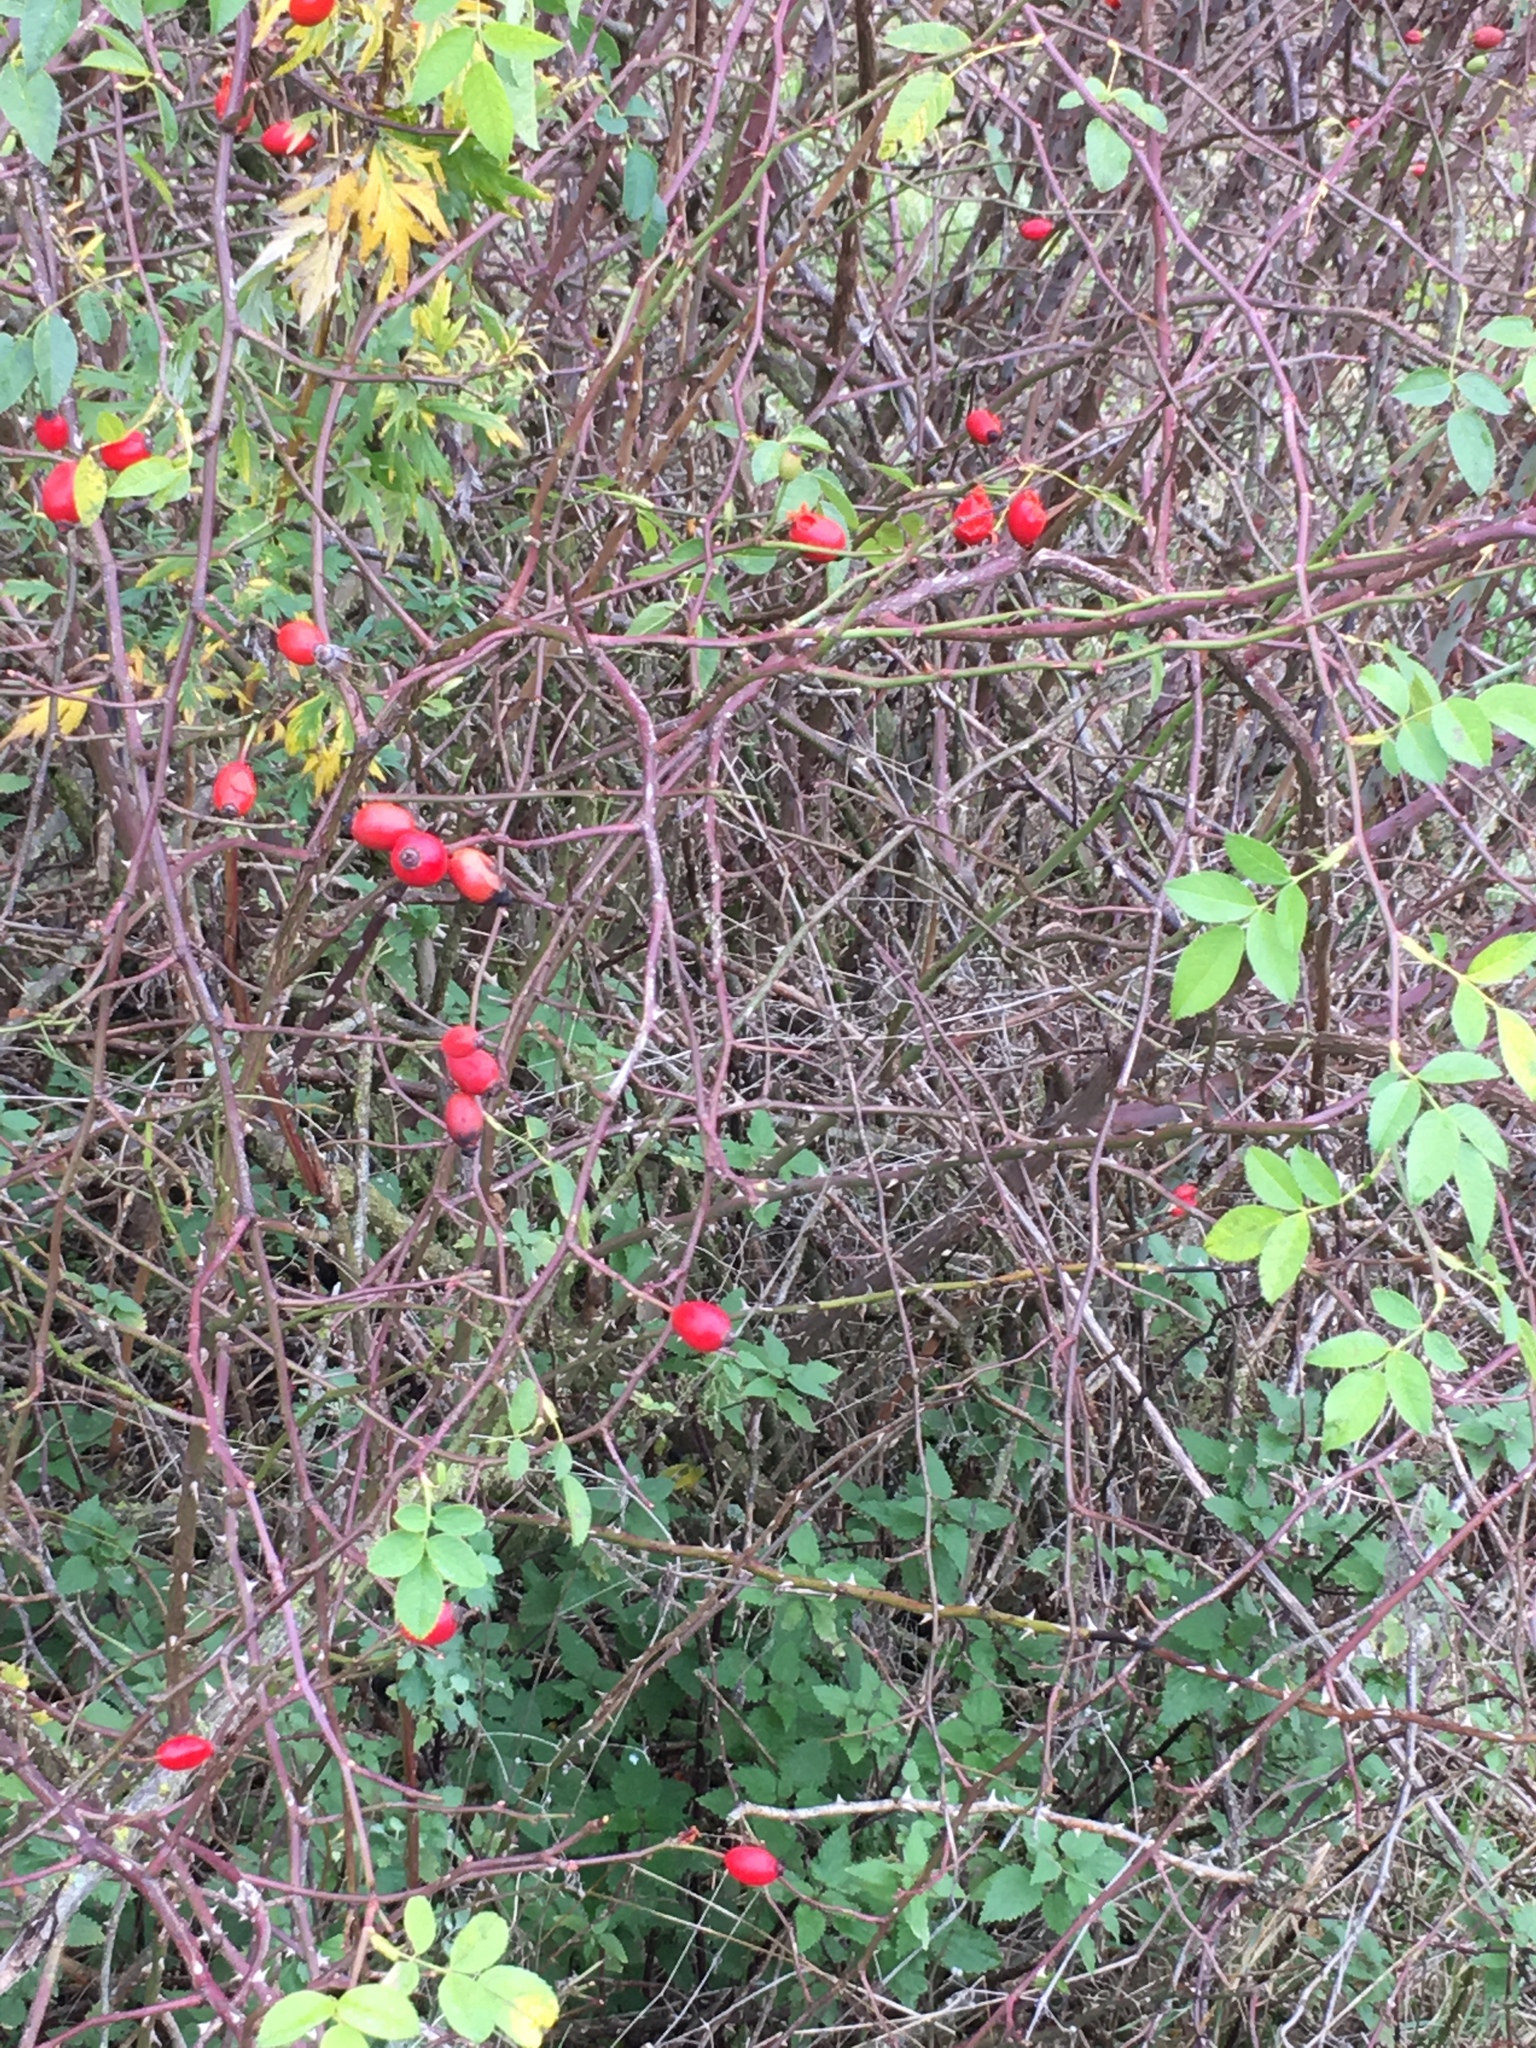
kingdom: Plantae
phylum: Tracheophyta
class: Magnoliopsida
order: Rosales
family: Rosaceae
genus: Rosa
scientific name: Rosa canina
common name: Dog rose
